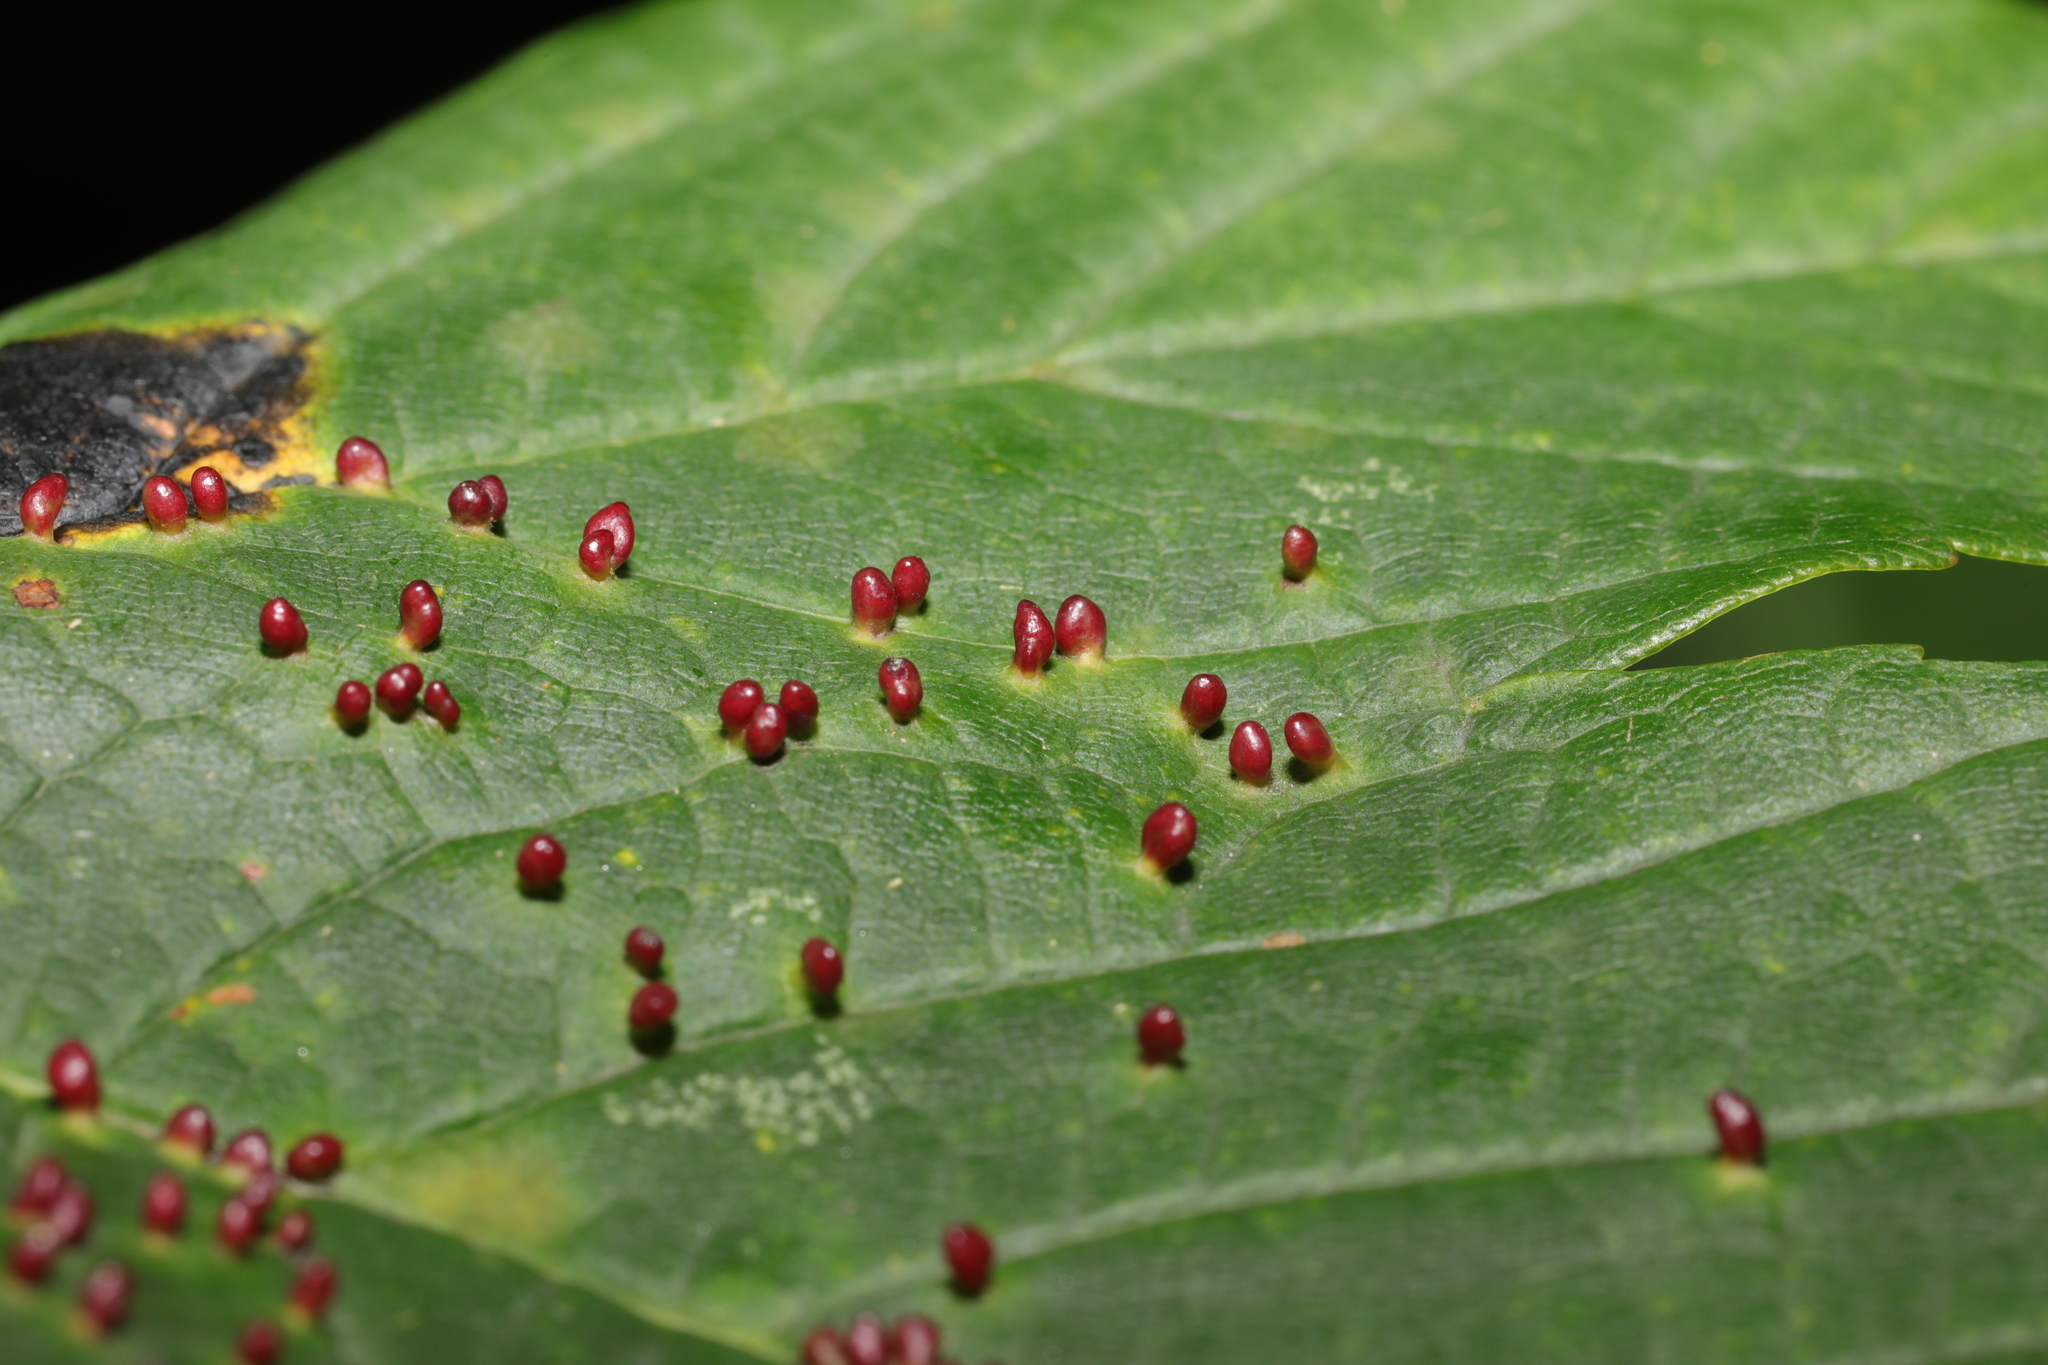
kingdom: Animalia
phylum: Arthropoda
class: Arachnida
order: Trombidiformes
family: Eriophyidae
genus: Aceria
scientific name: Aceria cephaloneus
